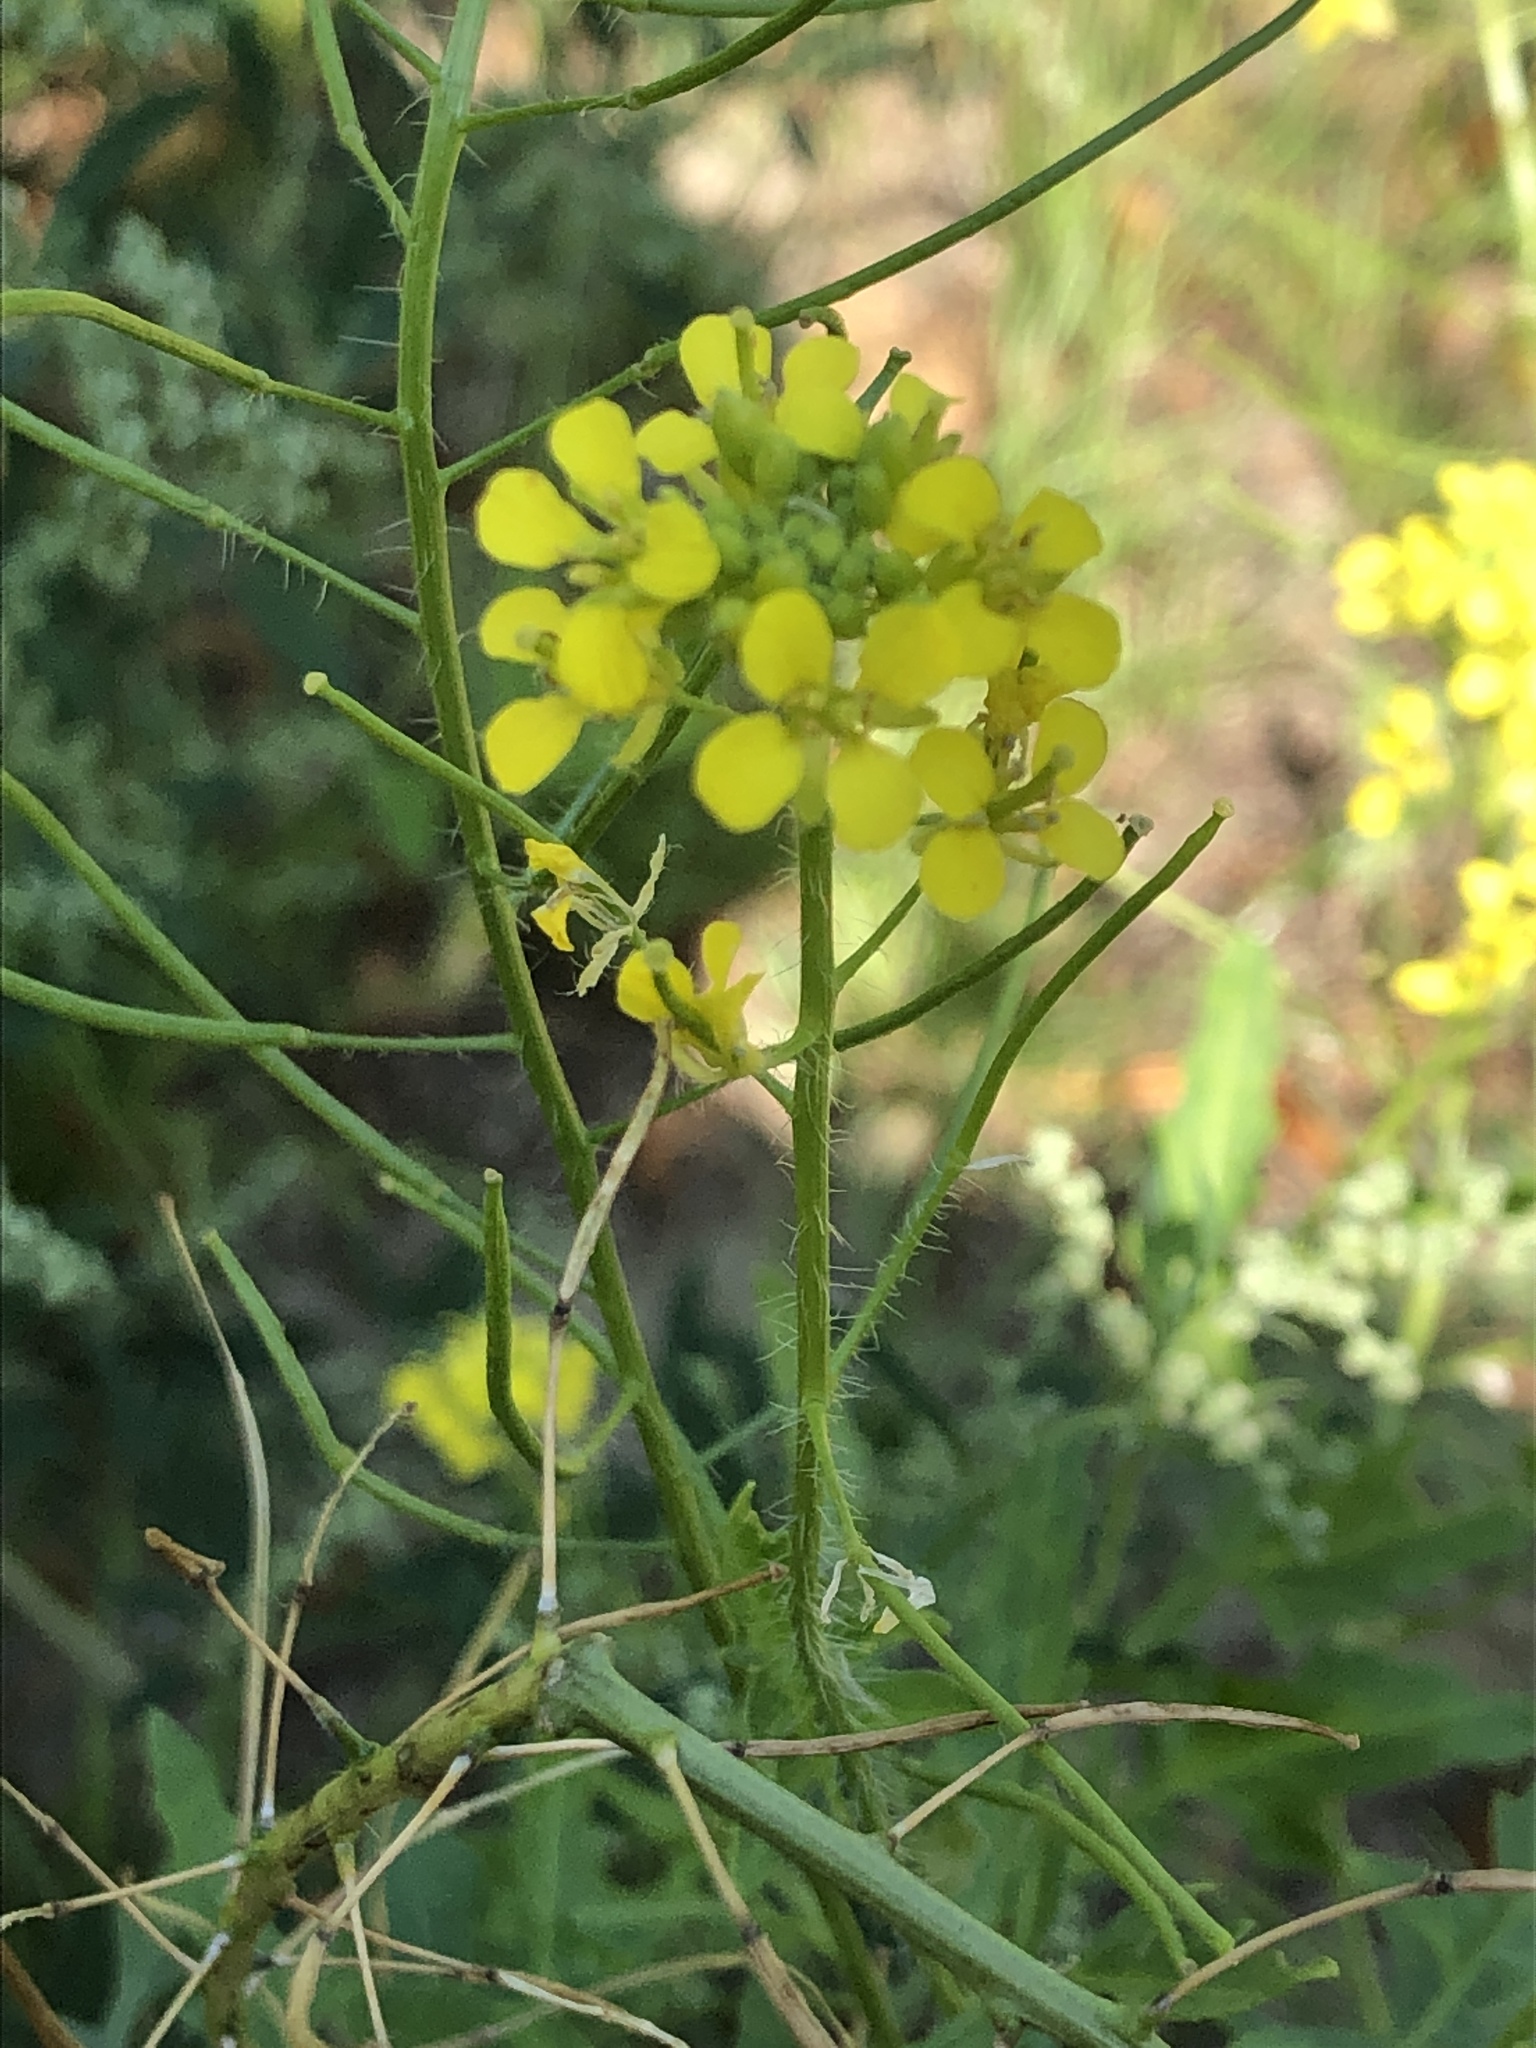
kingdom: Plantae
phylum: Tracheophyta
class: Magnoliopsida
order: Brassicales
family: Brassicaceae
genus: Sisymbrium
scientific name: Sisymbrium loeselii
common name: False london-rocket
